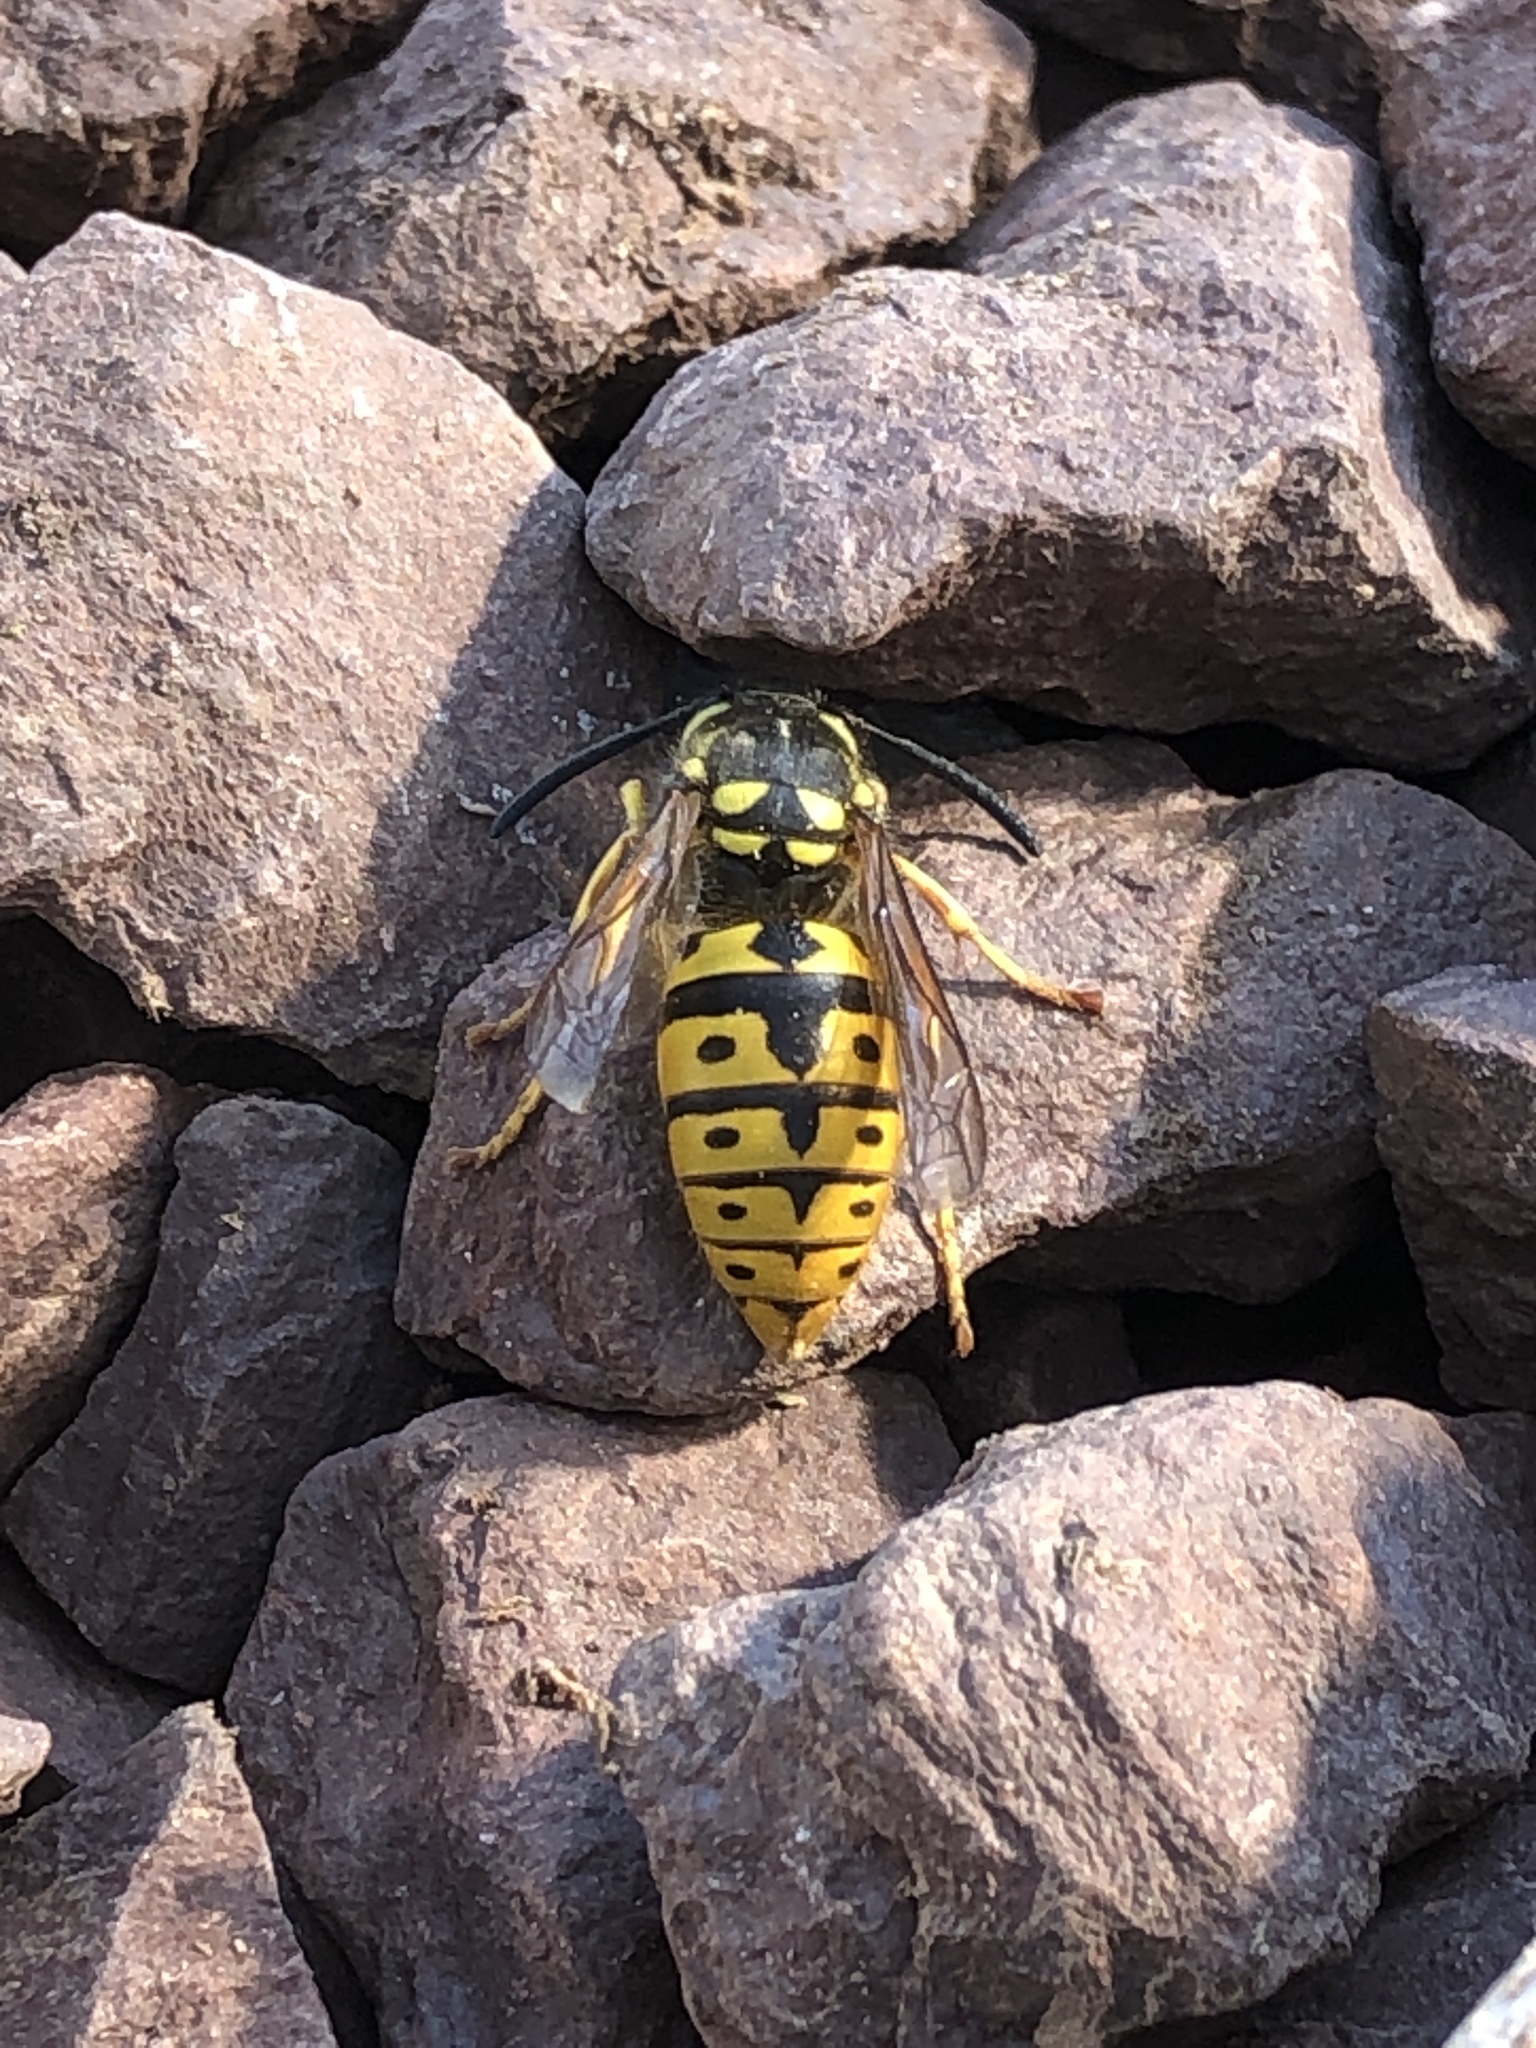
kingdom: Animalia
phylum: Arthropoda
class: Insecta
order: Hymenoptera
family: Vespidae
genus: Vespula
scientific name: Vespula germanica
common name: German wasp
